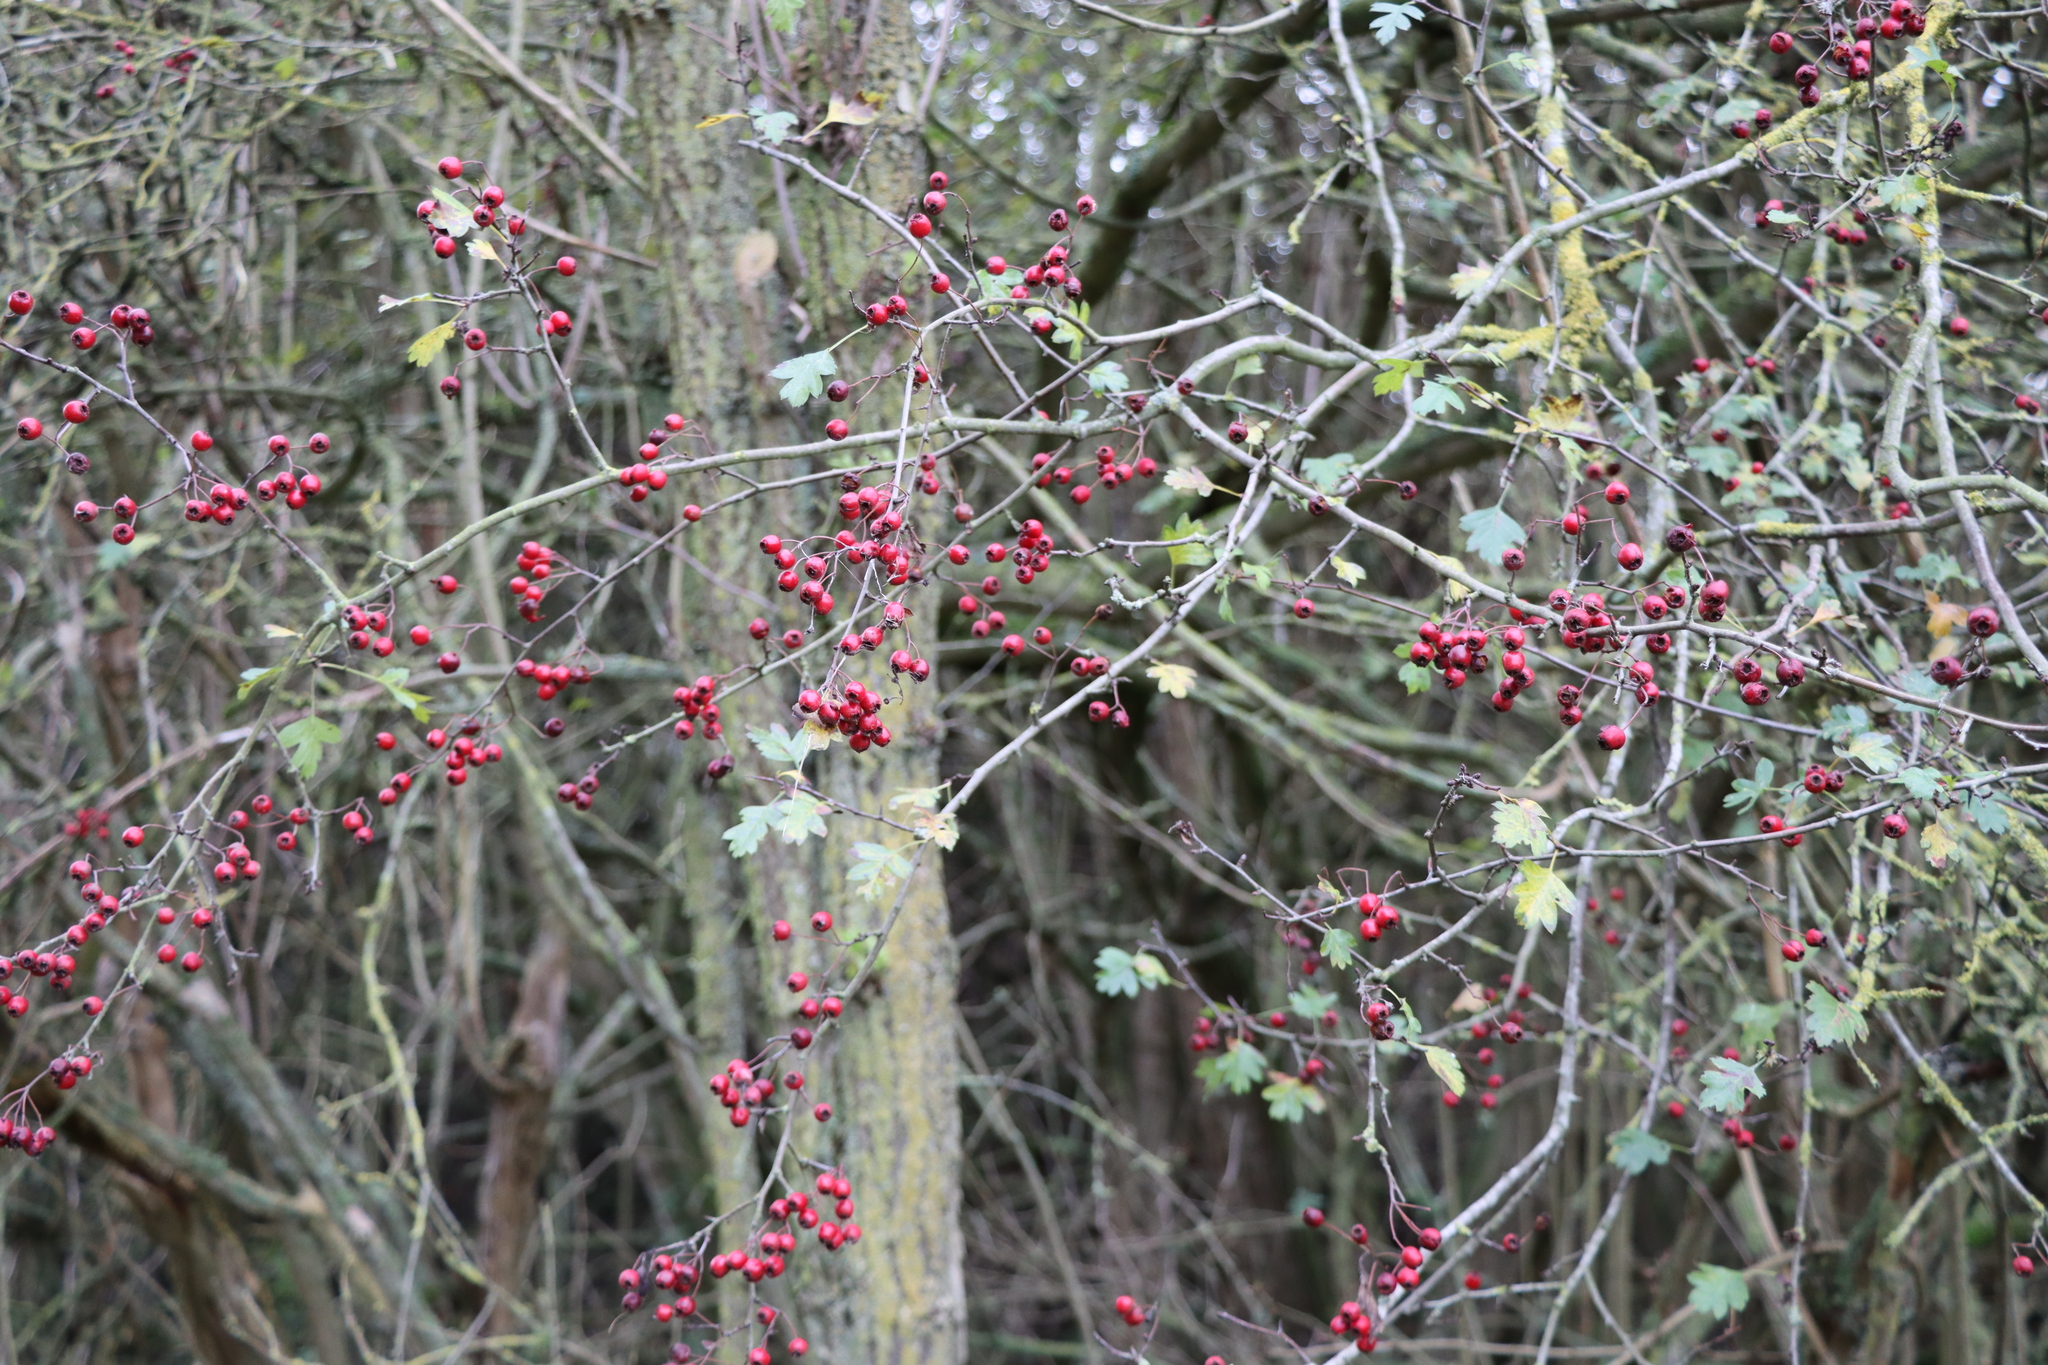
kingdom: Plantae
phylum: Tracheophyta
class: Magnoliopsida
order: Rosales
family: Rosaceae
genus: Crataegus
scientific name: Crataegus monogyna
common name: Hawthorn
